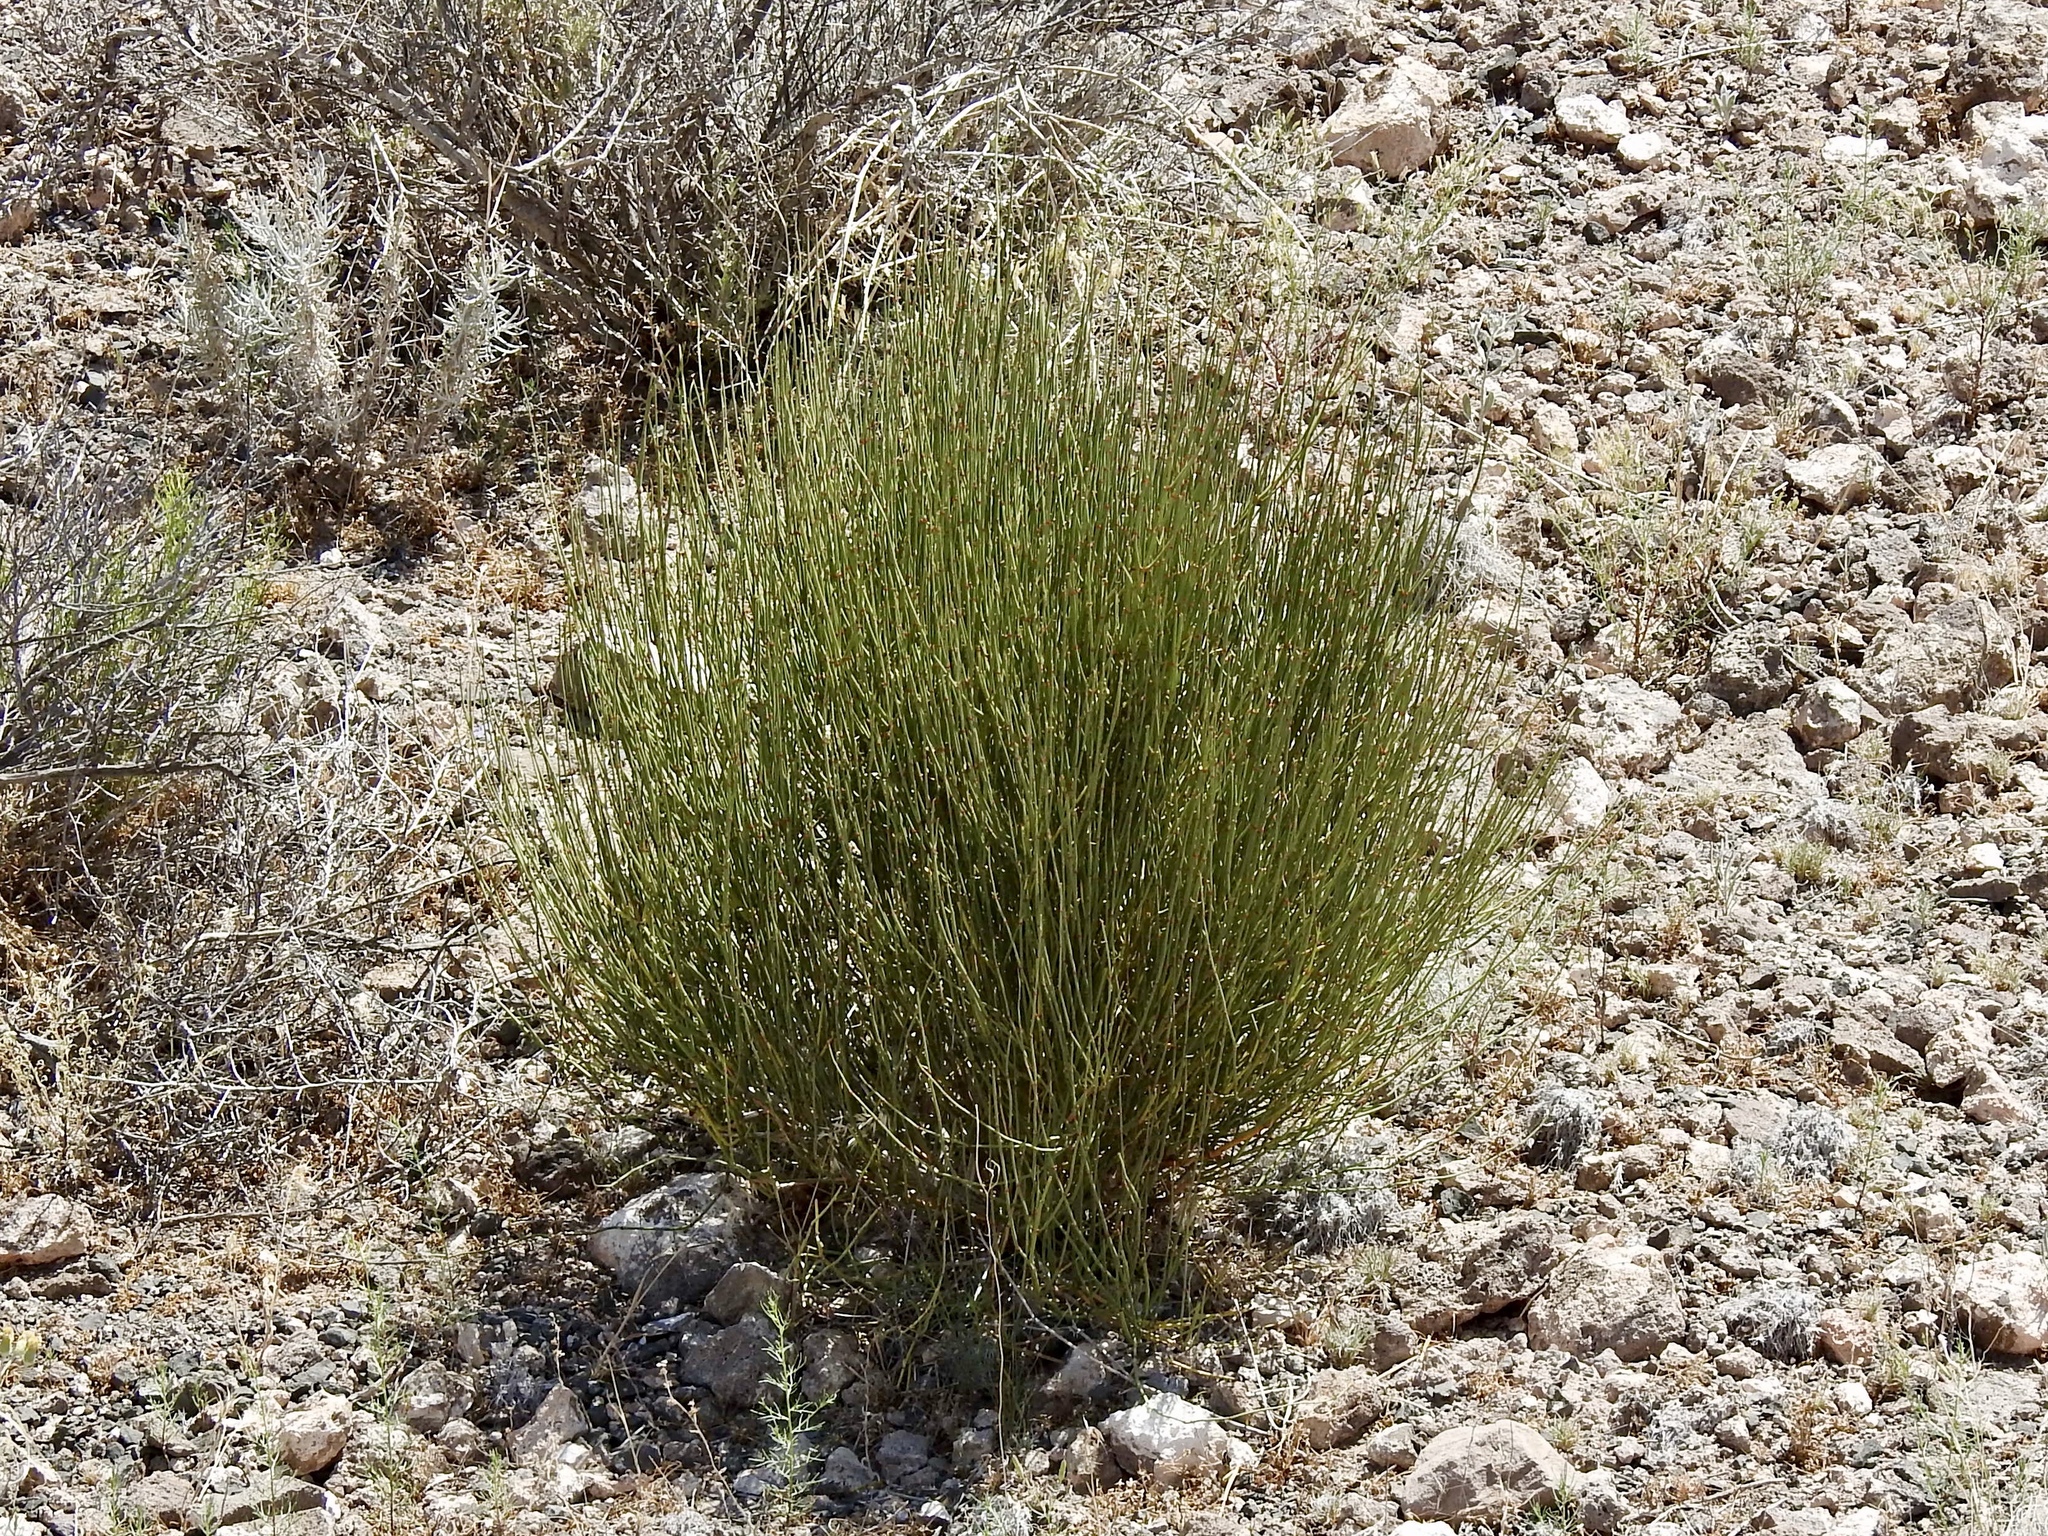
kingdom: Plantae
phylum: Tracheophyta
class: Gnetopsida
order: Ephedrales
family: Ephedraceae
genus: Ephedra
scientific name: Ephedra viridis
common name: Green ephedra
